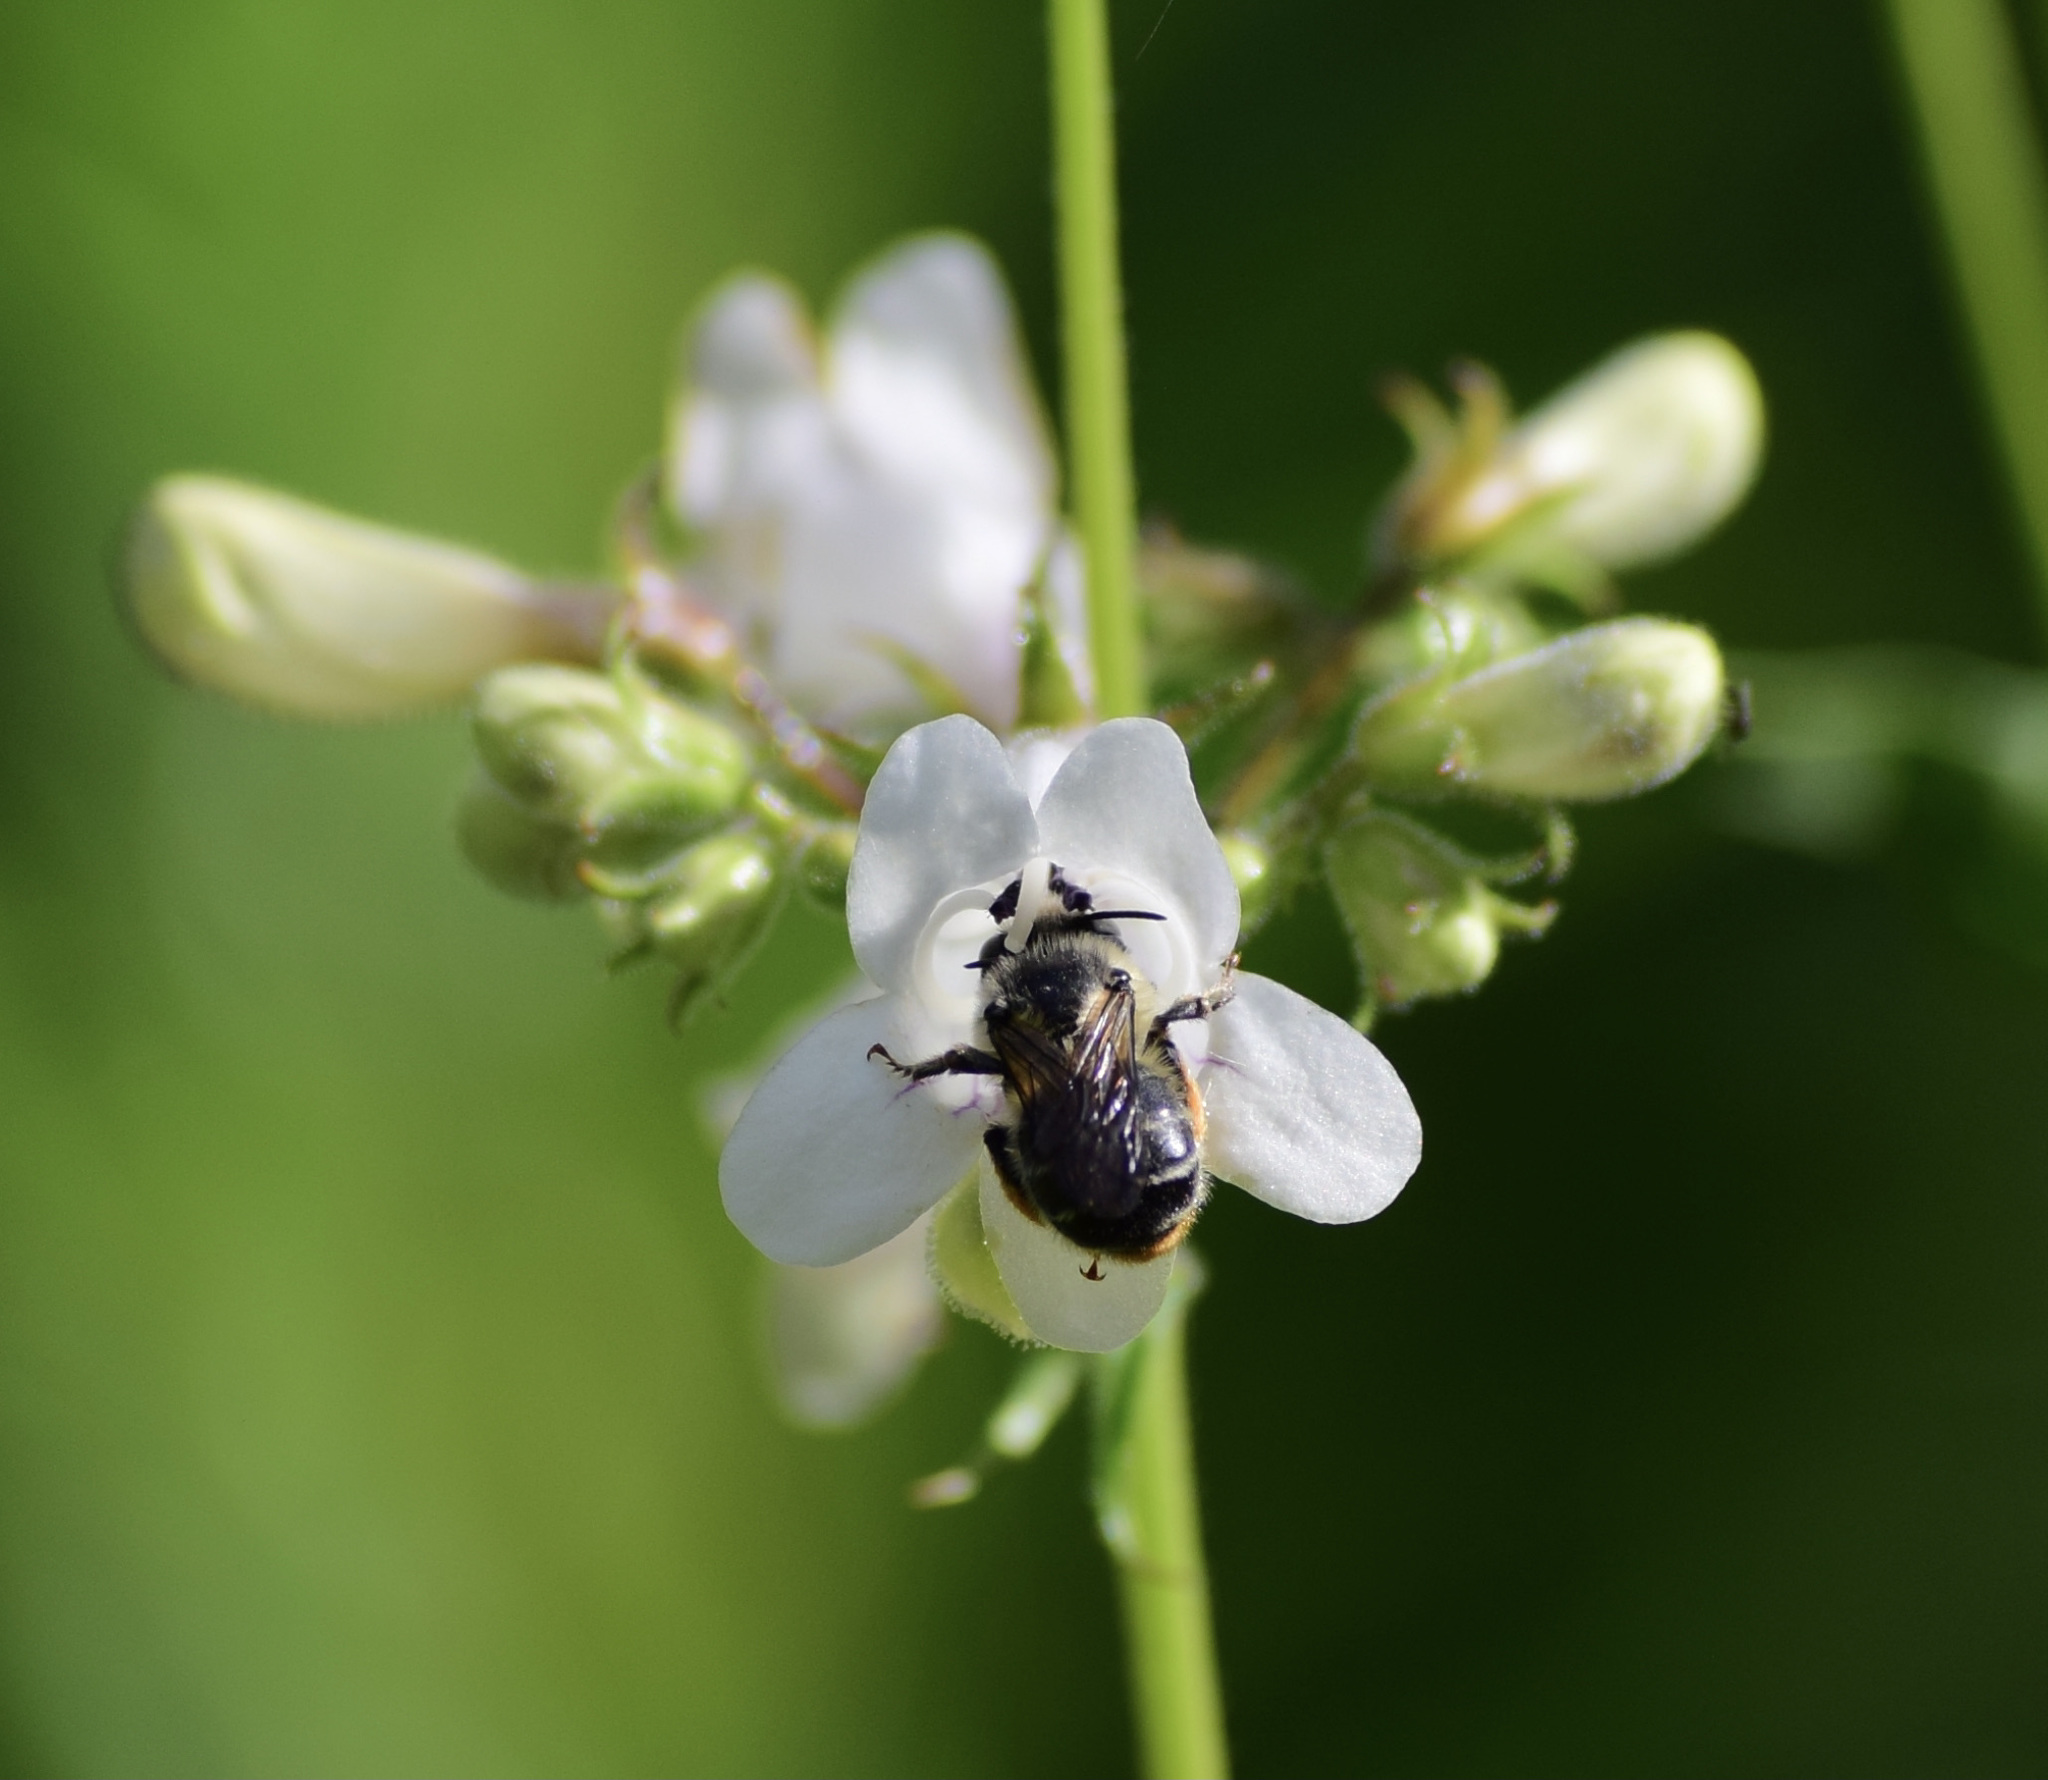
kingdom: Animalia
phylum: Arthropoda
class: Insecta
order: Hymenoptera
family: Apidae
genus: Anthophora
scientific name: Anthophora terminalis
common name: Orange-tipped wood-digger bee
